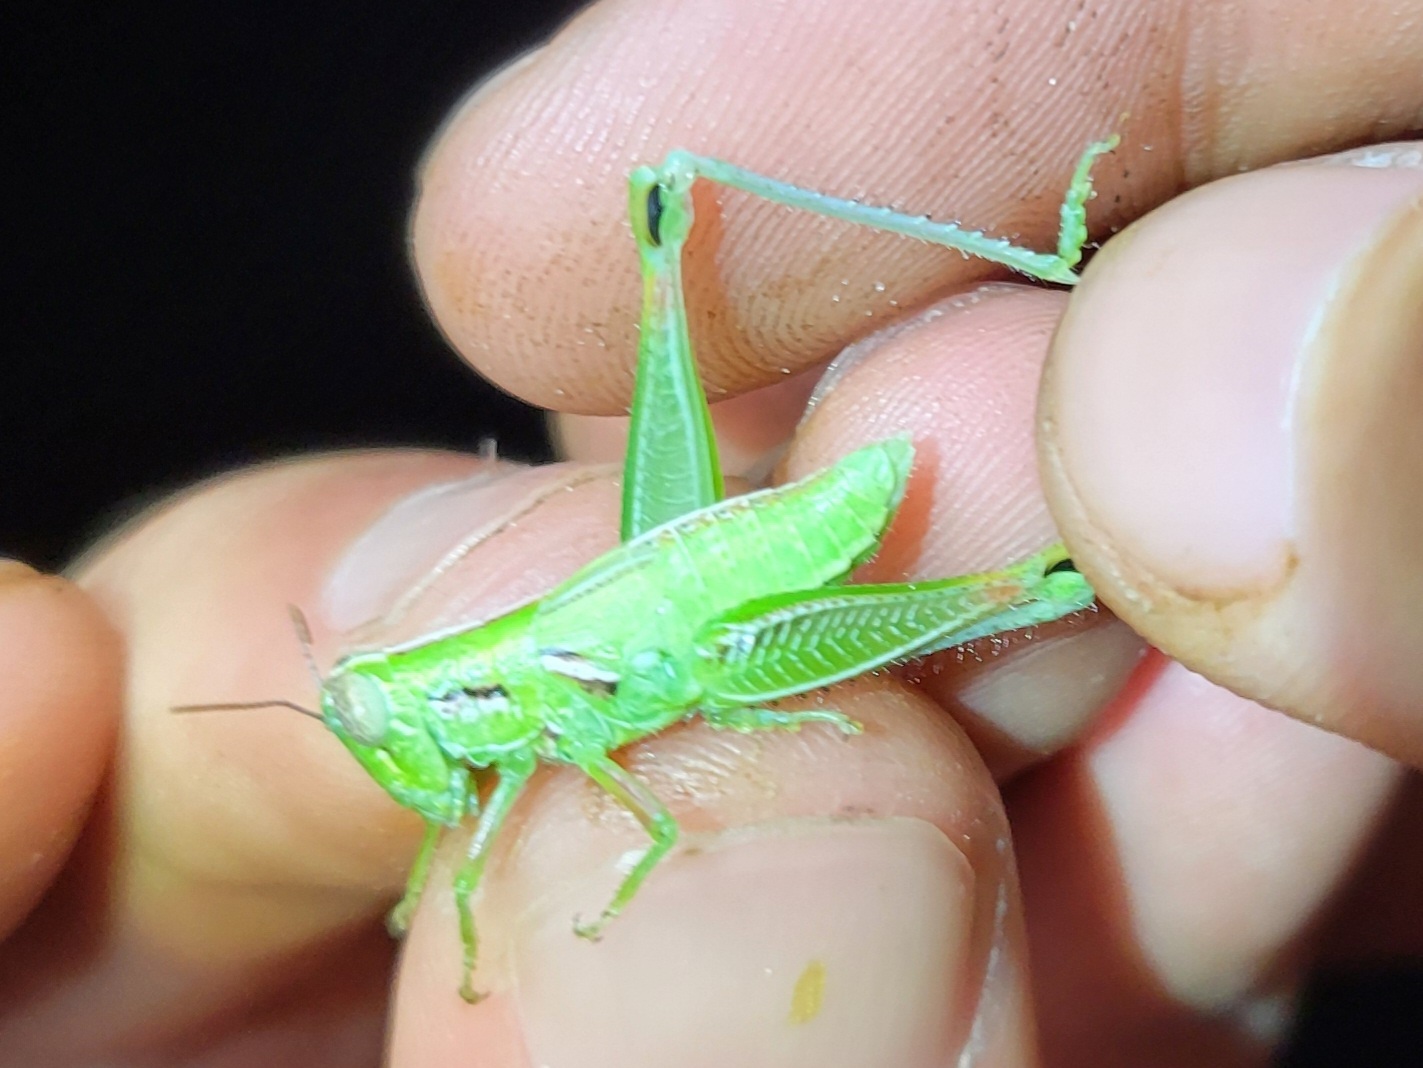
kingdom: Animalia
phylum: Arthropoda
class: Insecta
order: Orthoptera
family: Acrididae
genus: Hesperotettix
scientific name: Hesperotettix osceola
